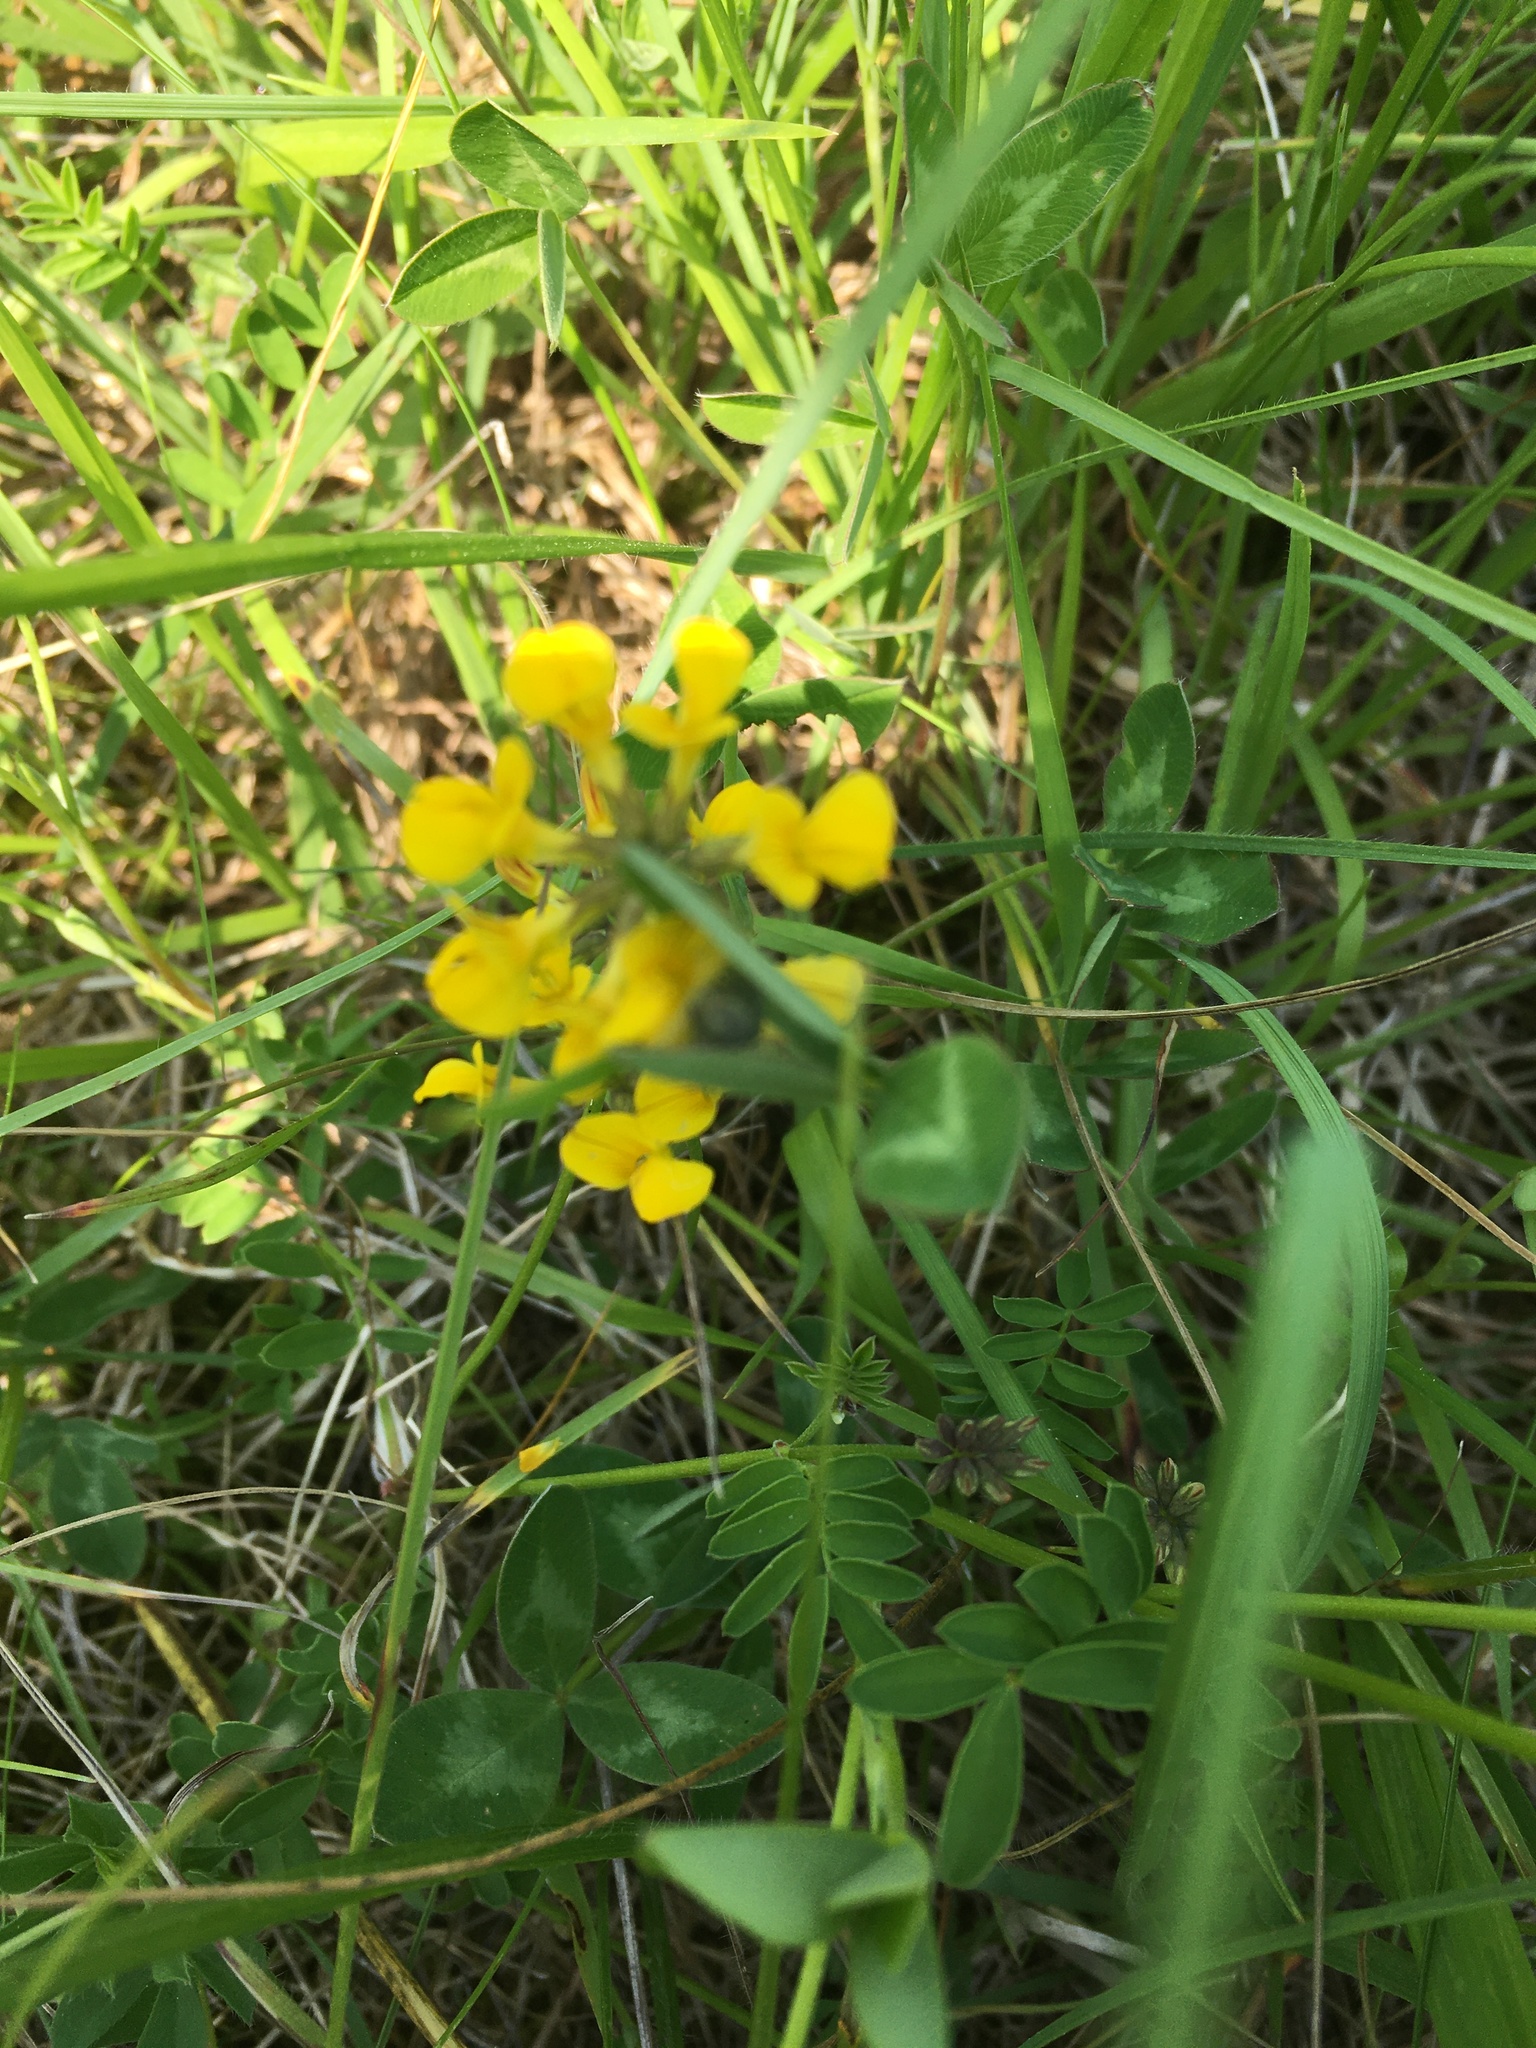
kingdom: Plantae
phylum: Tracheophyta
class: Magnoliopsida
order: Fabales
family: Fabaceae
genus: Hippocrepis
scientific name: Hippocrepis comosa
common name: Horseshoe vetch
